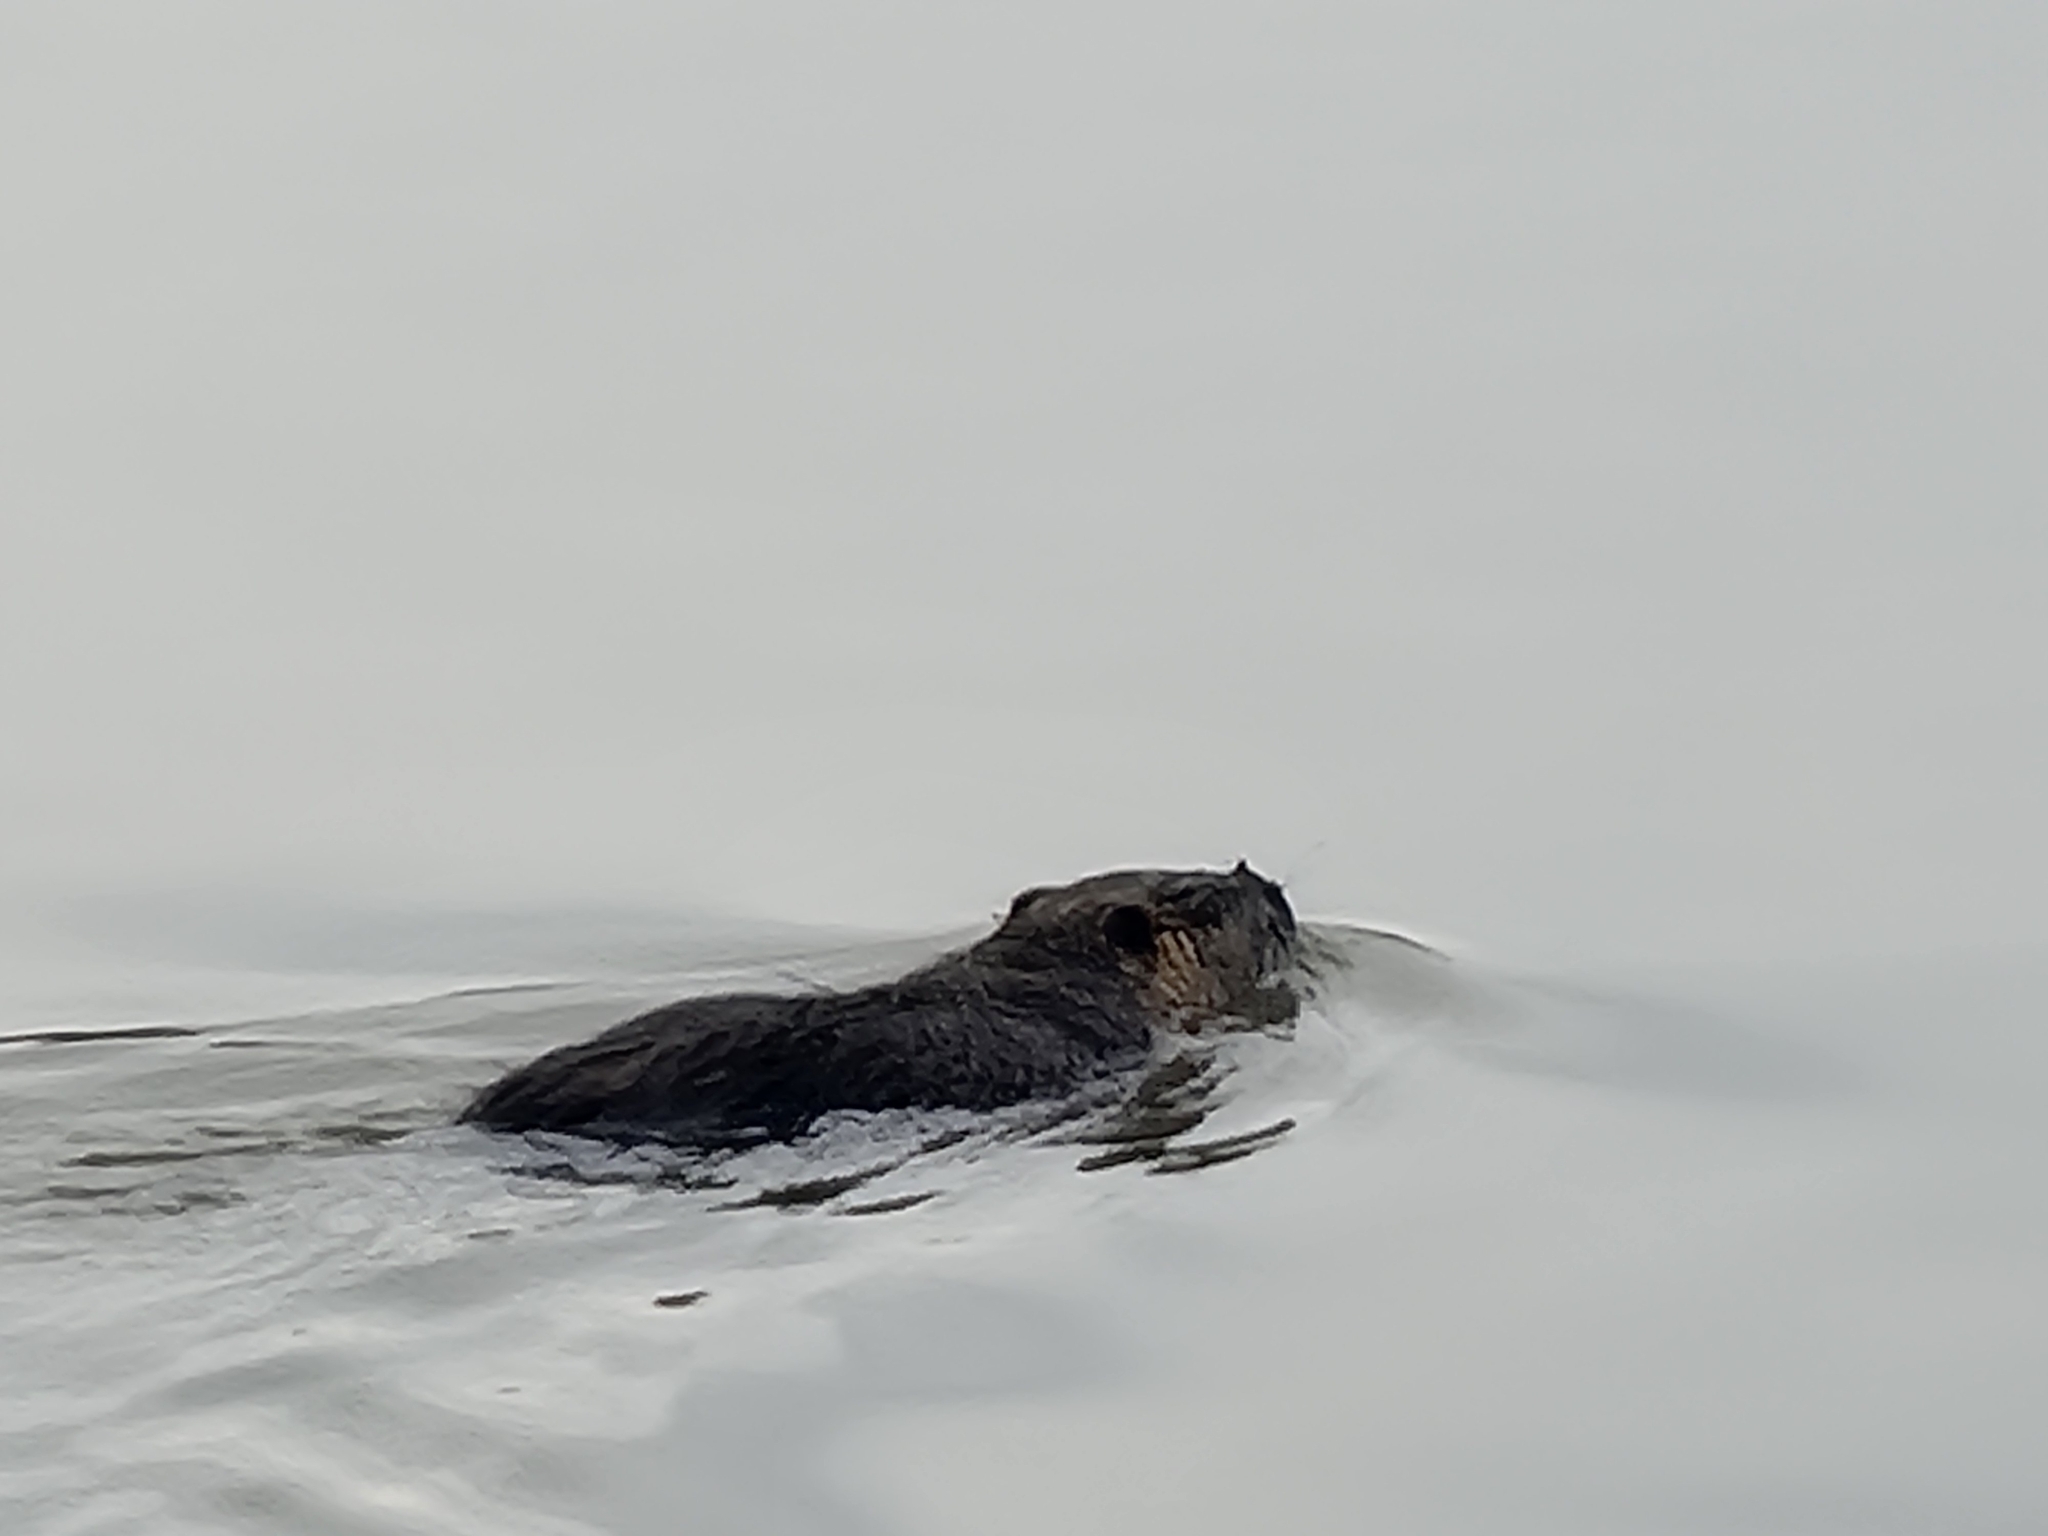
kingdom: Animalia
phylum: Chordata
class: Mammalia
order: Rodentia
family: Myocastoridae
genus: Myocastor
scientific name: Myocastor coypus
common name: Coypu
